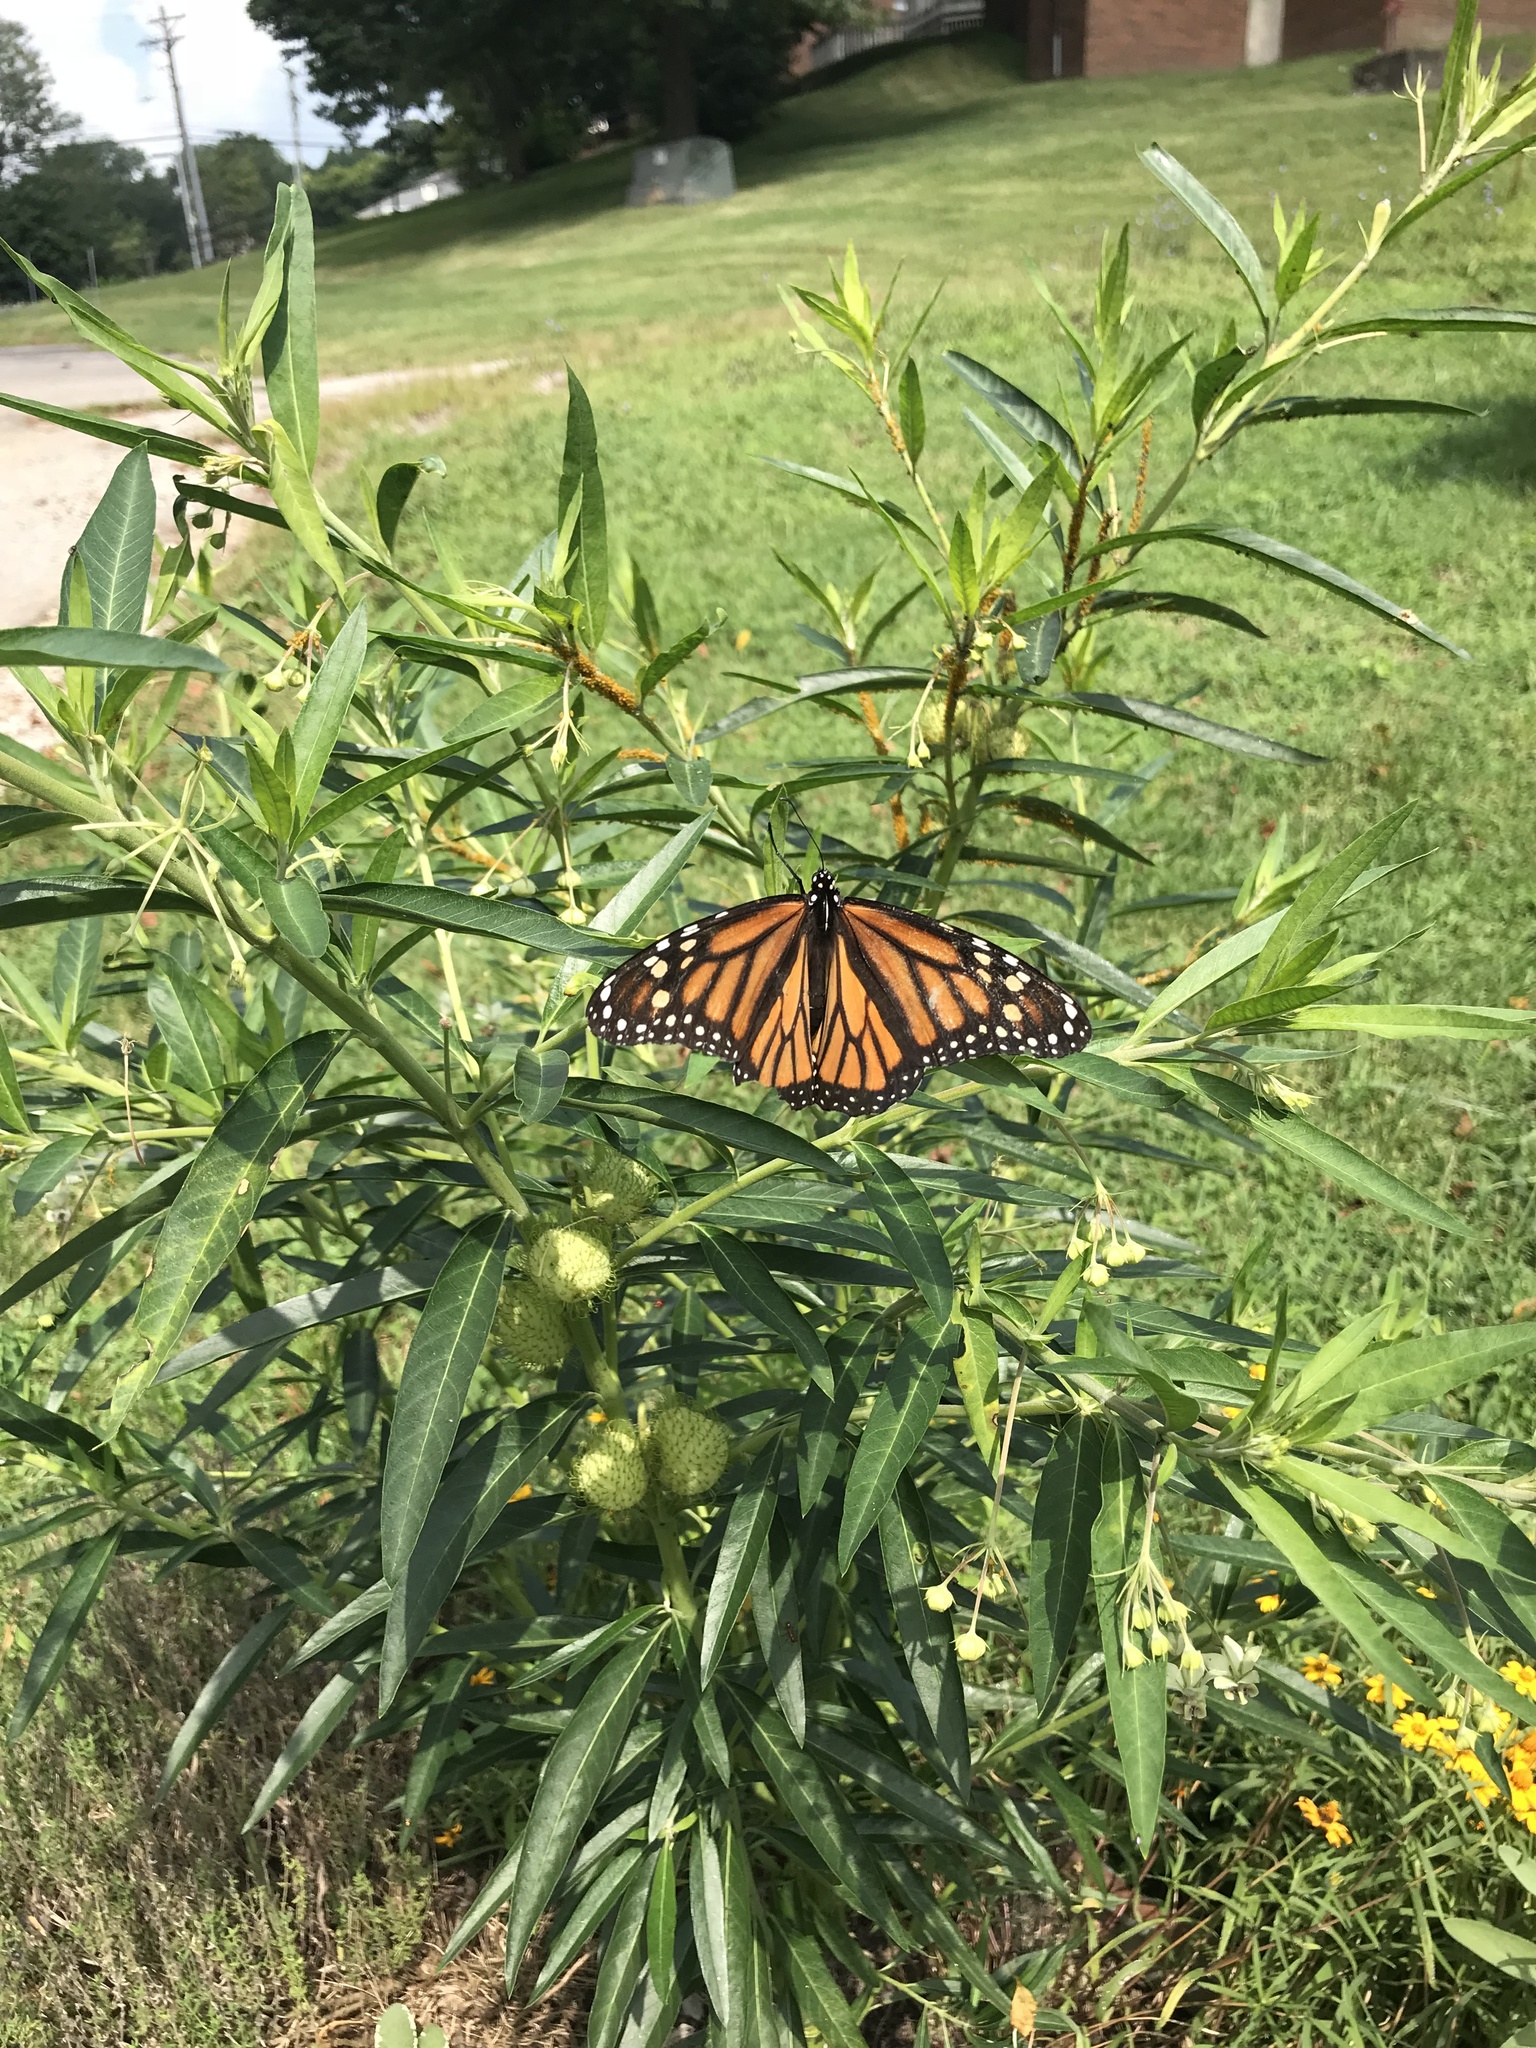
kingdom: Animalia
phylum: Arthropoda
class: Insecta
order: Lepidoptera
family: Nymphalidae
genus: Danaus
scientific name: Danaus plexippus
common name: Monarch
